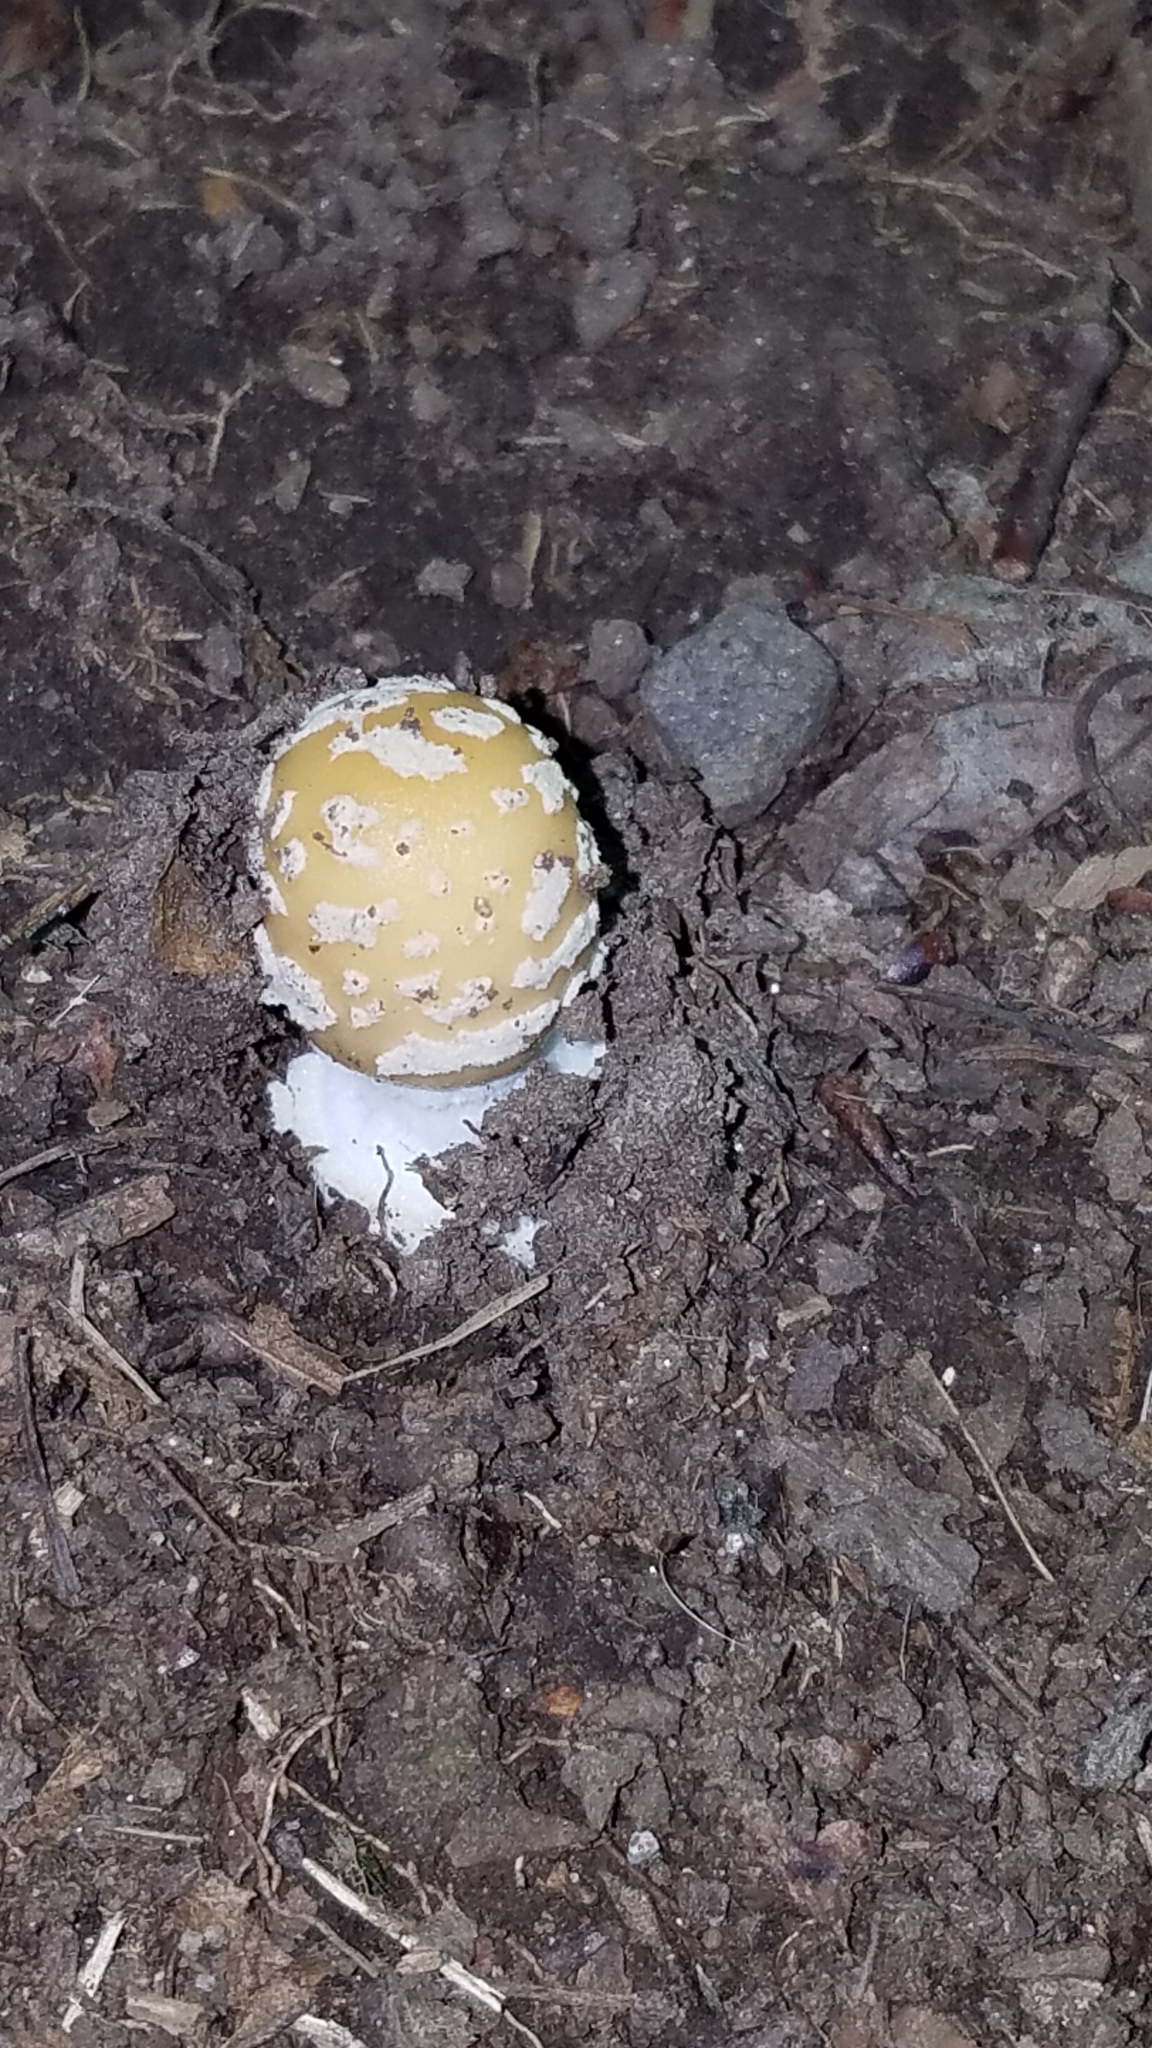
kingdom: Fungi
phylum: Basidiomycota
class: Agaricomycetes
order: Agaricales
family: Amanitaceae
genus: Amanita
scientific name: Amanita muscaria
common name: Fly agaric
